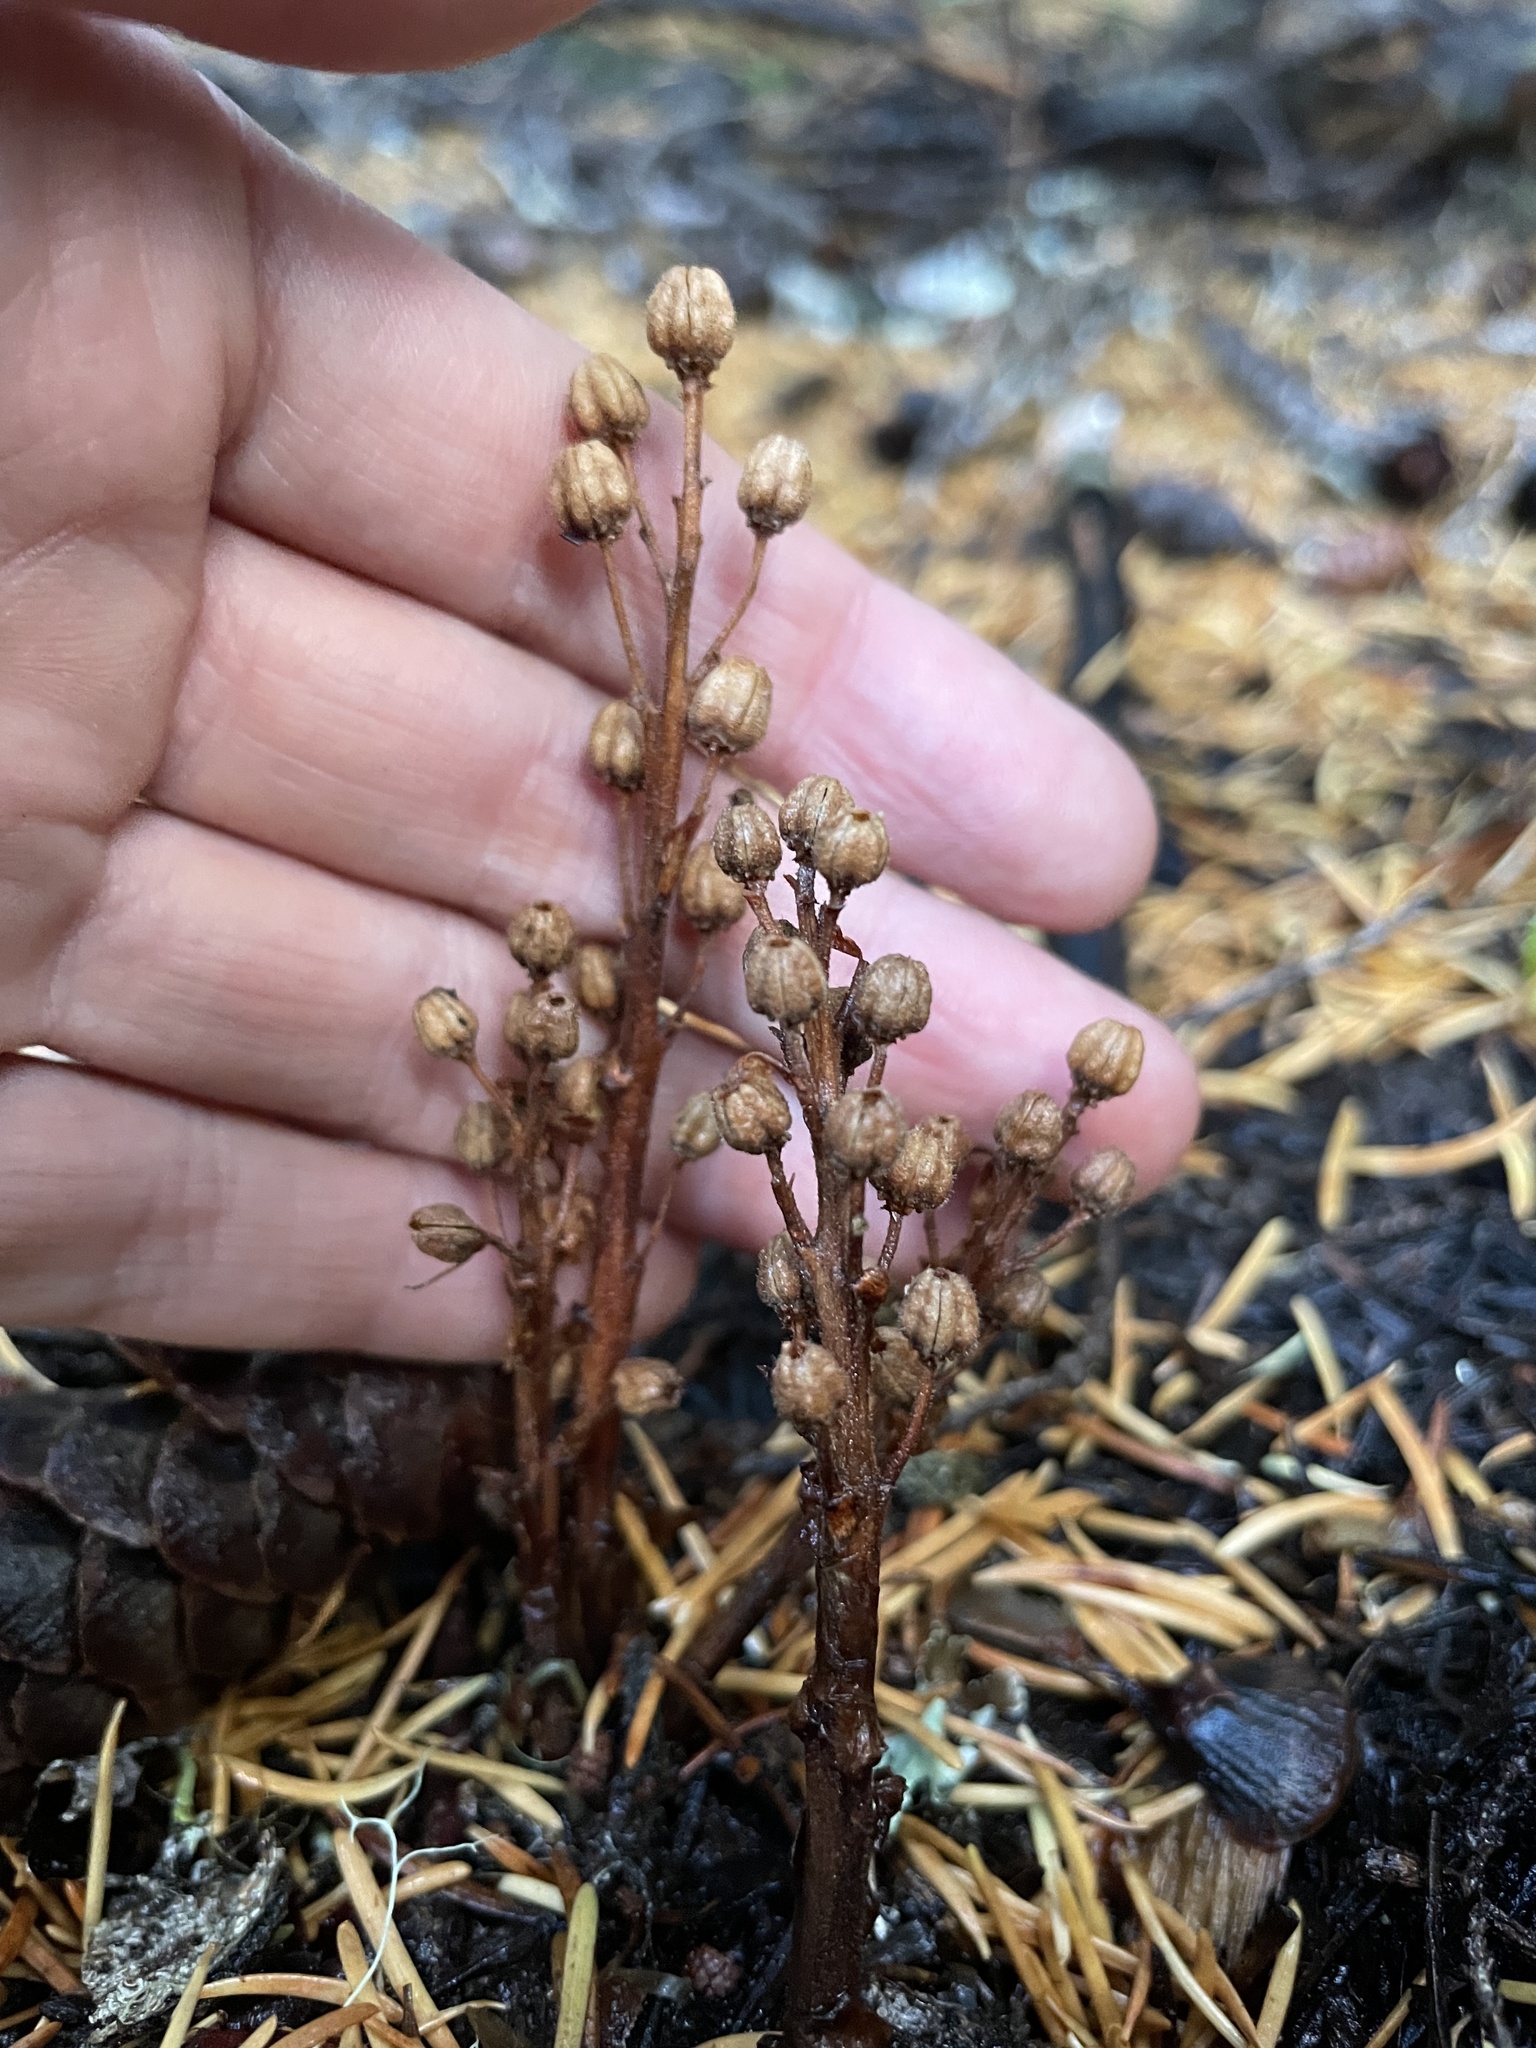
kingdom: Plantae
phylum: Tracheophyta
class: Magnoliopsida
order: Ericales
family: Ericaceae
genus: Pyrola
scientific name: Pyrola aphylla
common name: Leafless wintergreen
